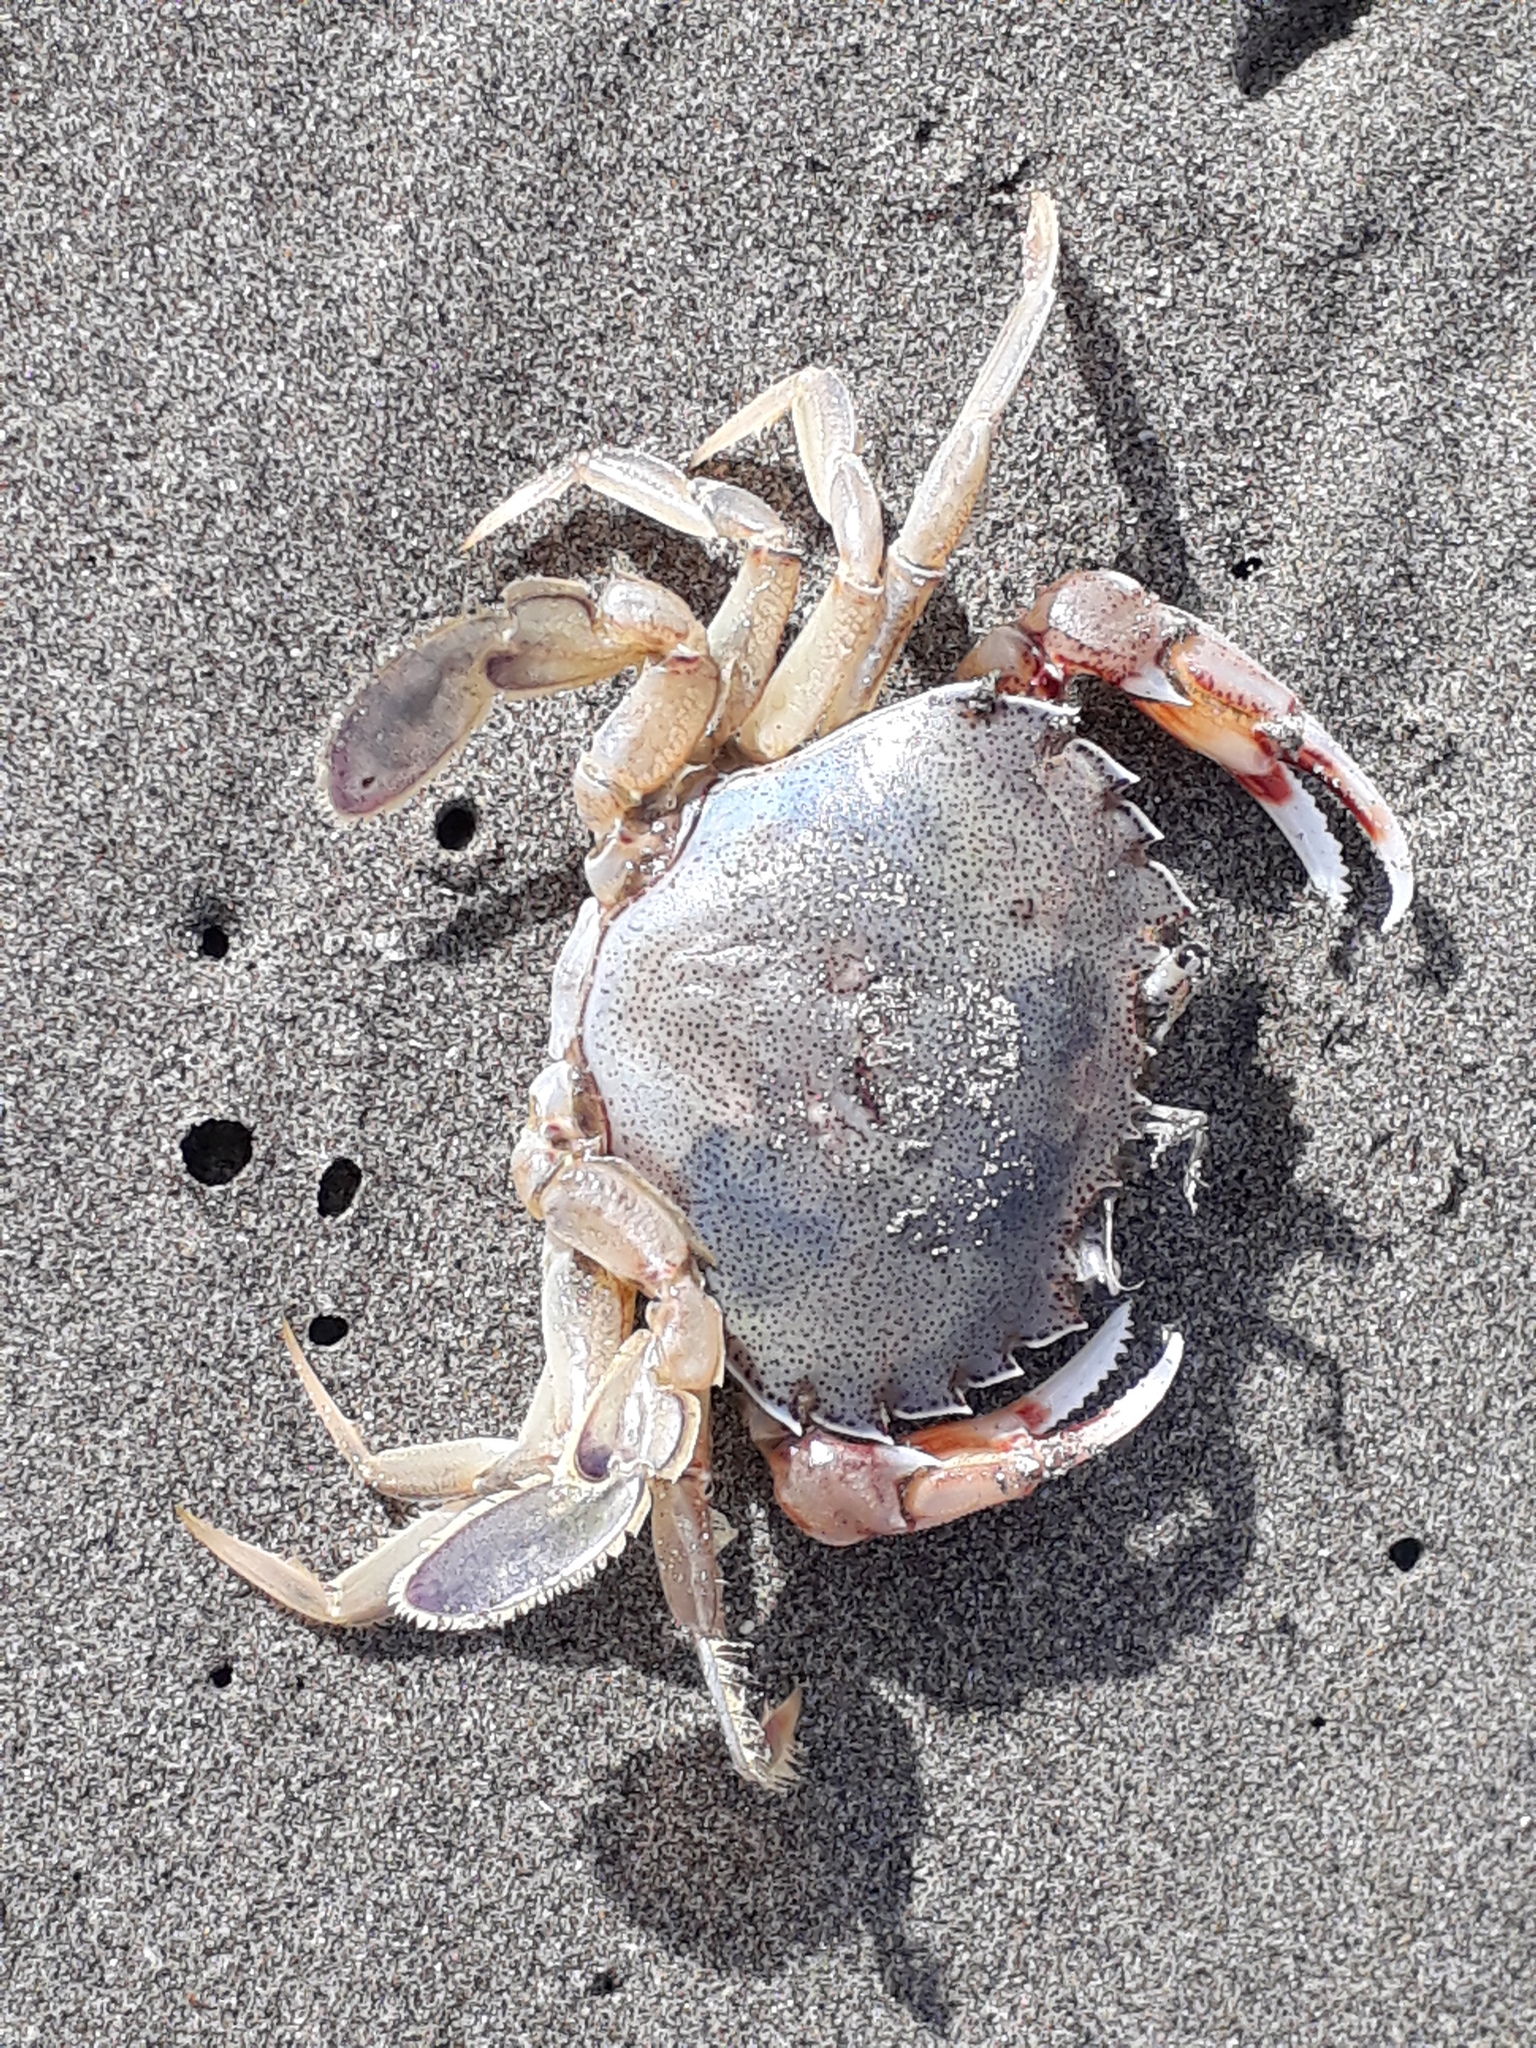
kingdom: Animalia
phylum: Arthropoda
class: Malacostraca
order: Decapoda
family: Ovalipidae
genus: Ovalipes
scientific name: Ovalipes catharus
